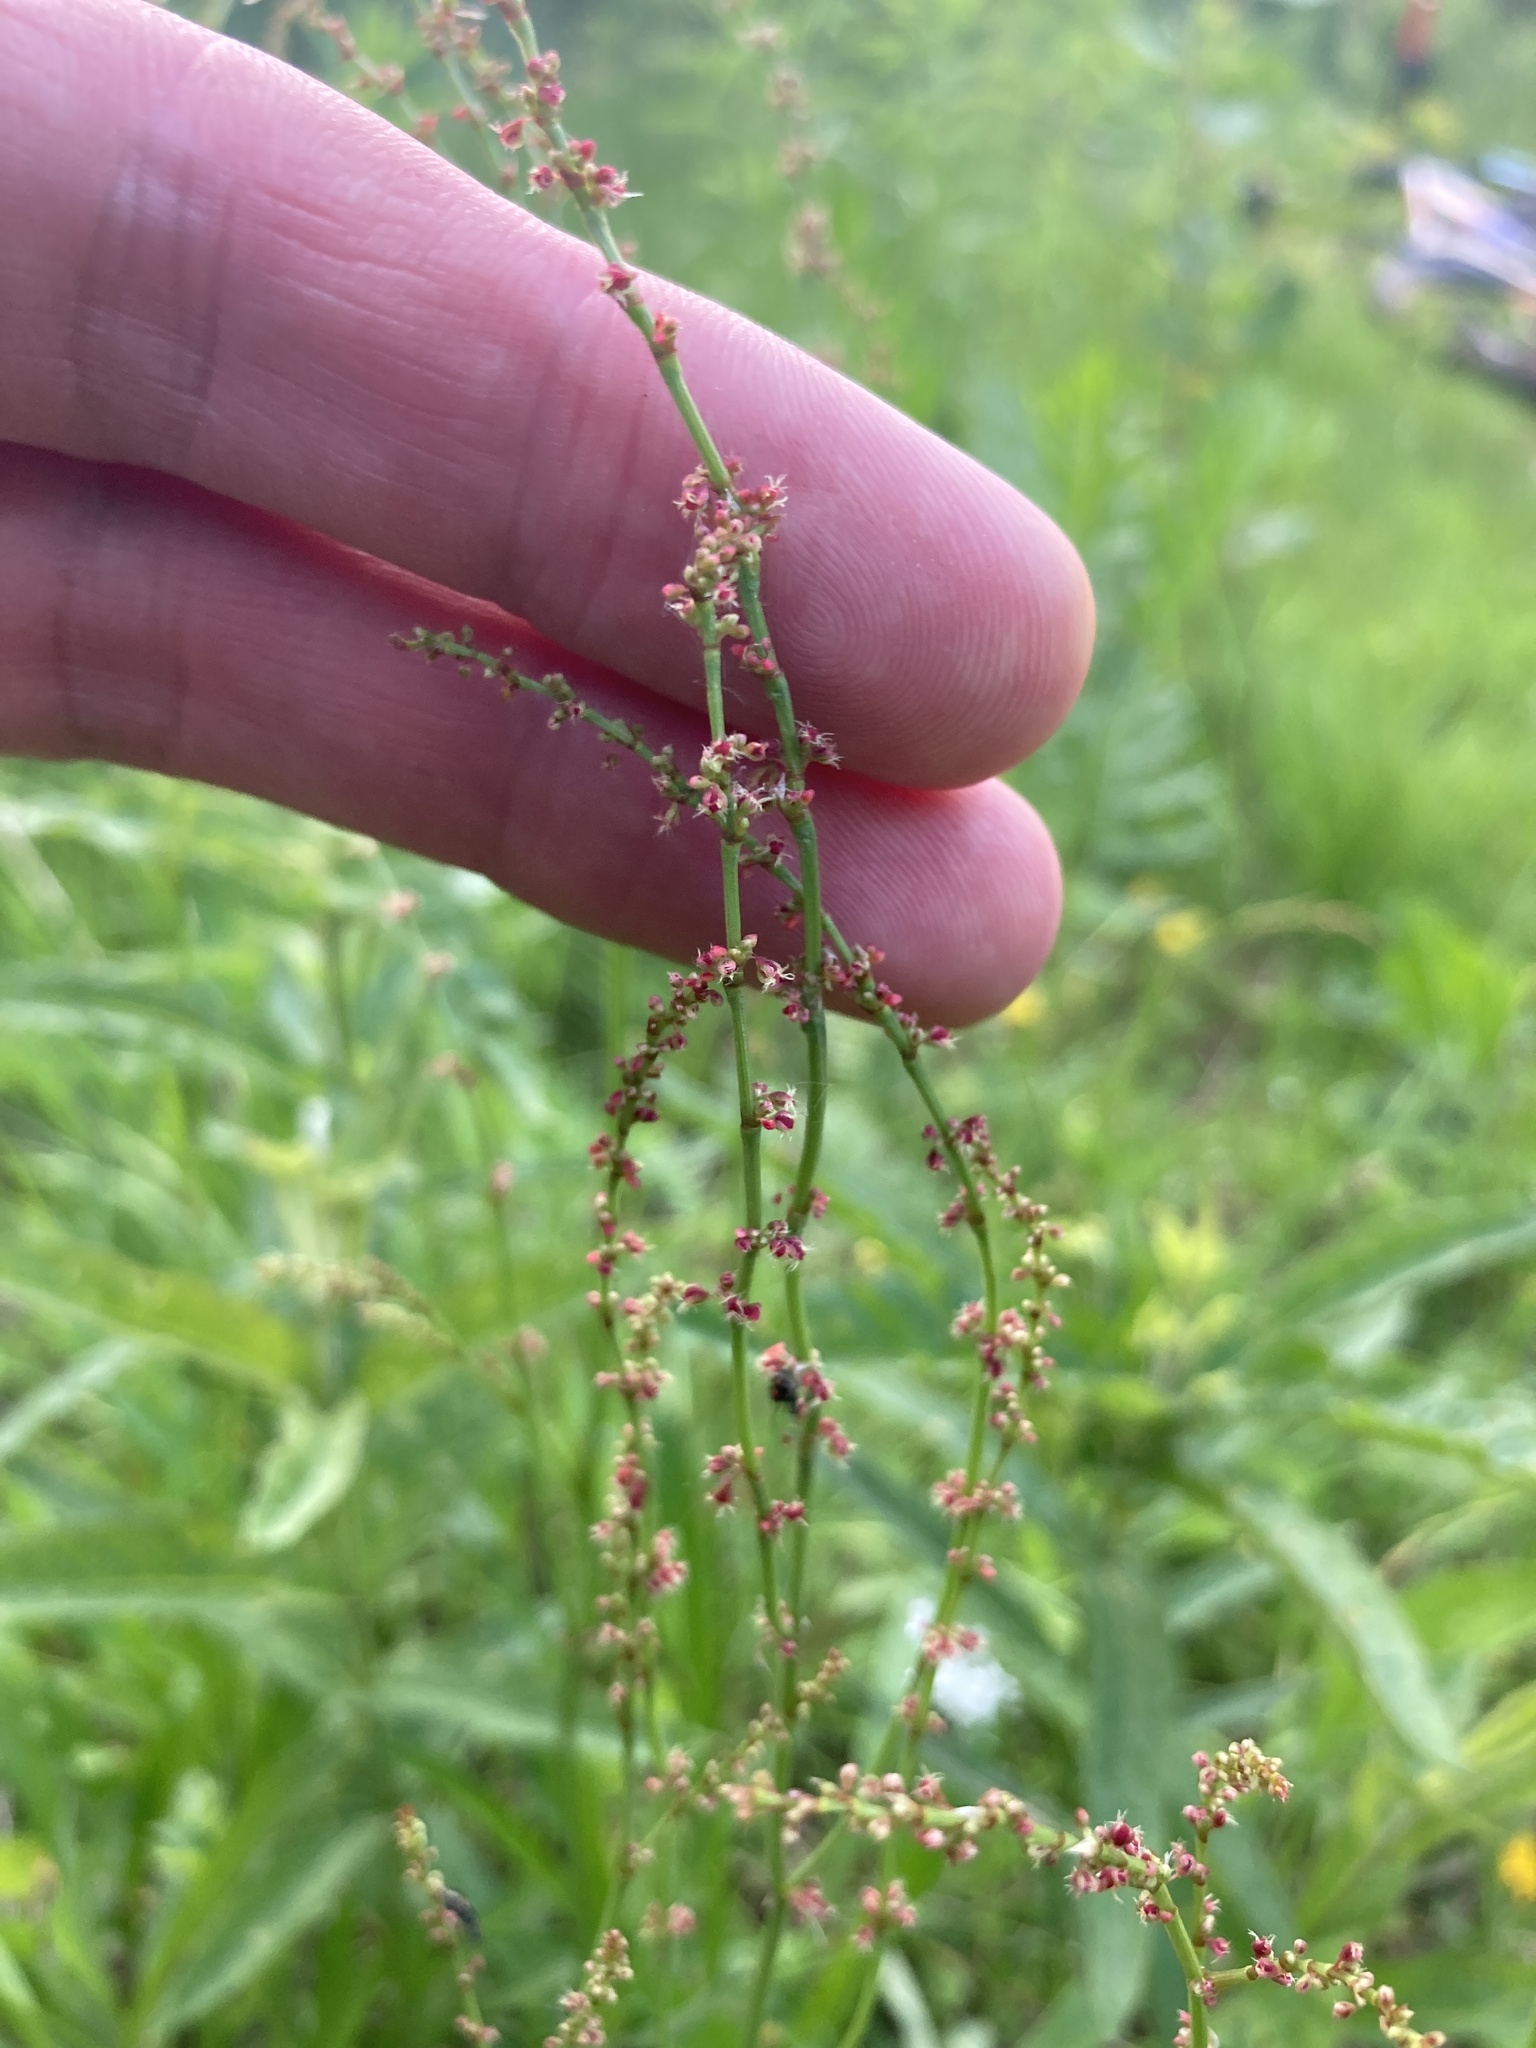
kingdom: Plantae
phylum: Tracheophyta
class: Magnoliopsida
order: Caryophyllales
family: Polygonaceae
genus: Rumex
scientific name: Rumex acetosella
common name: Common sheep sorrel
